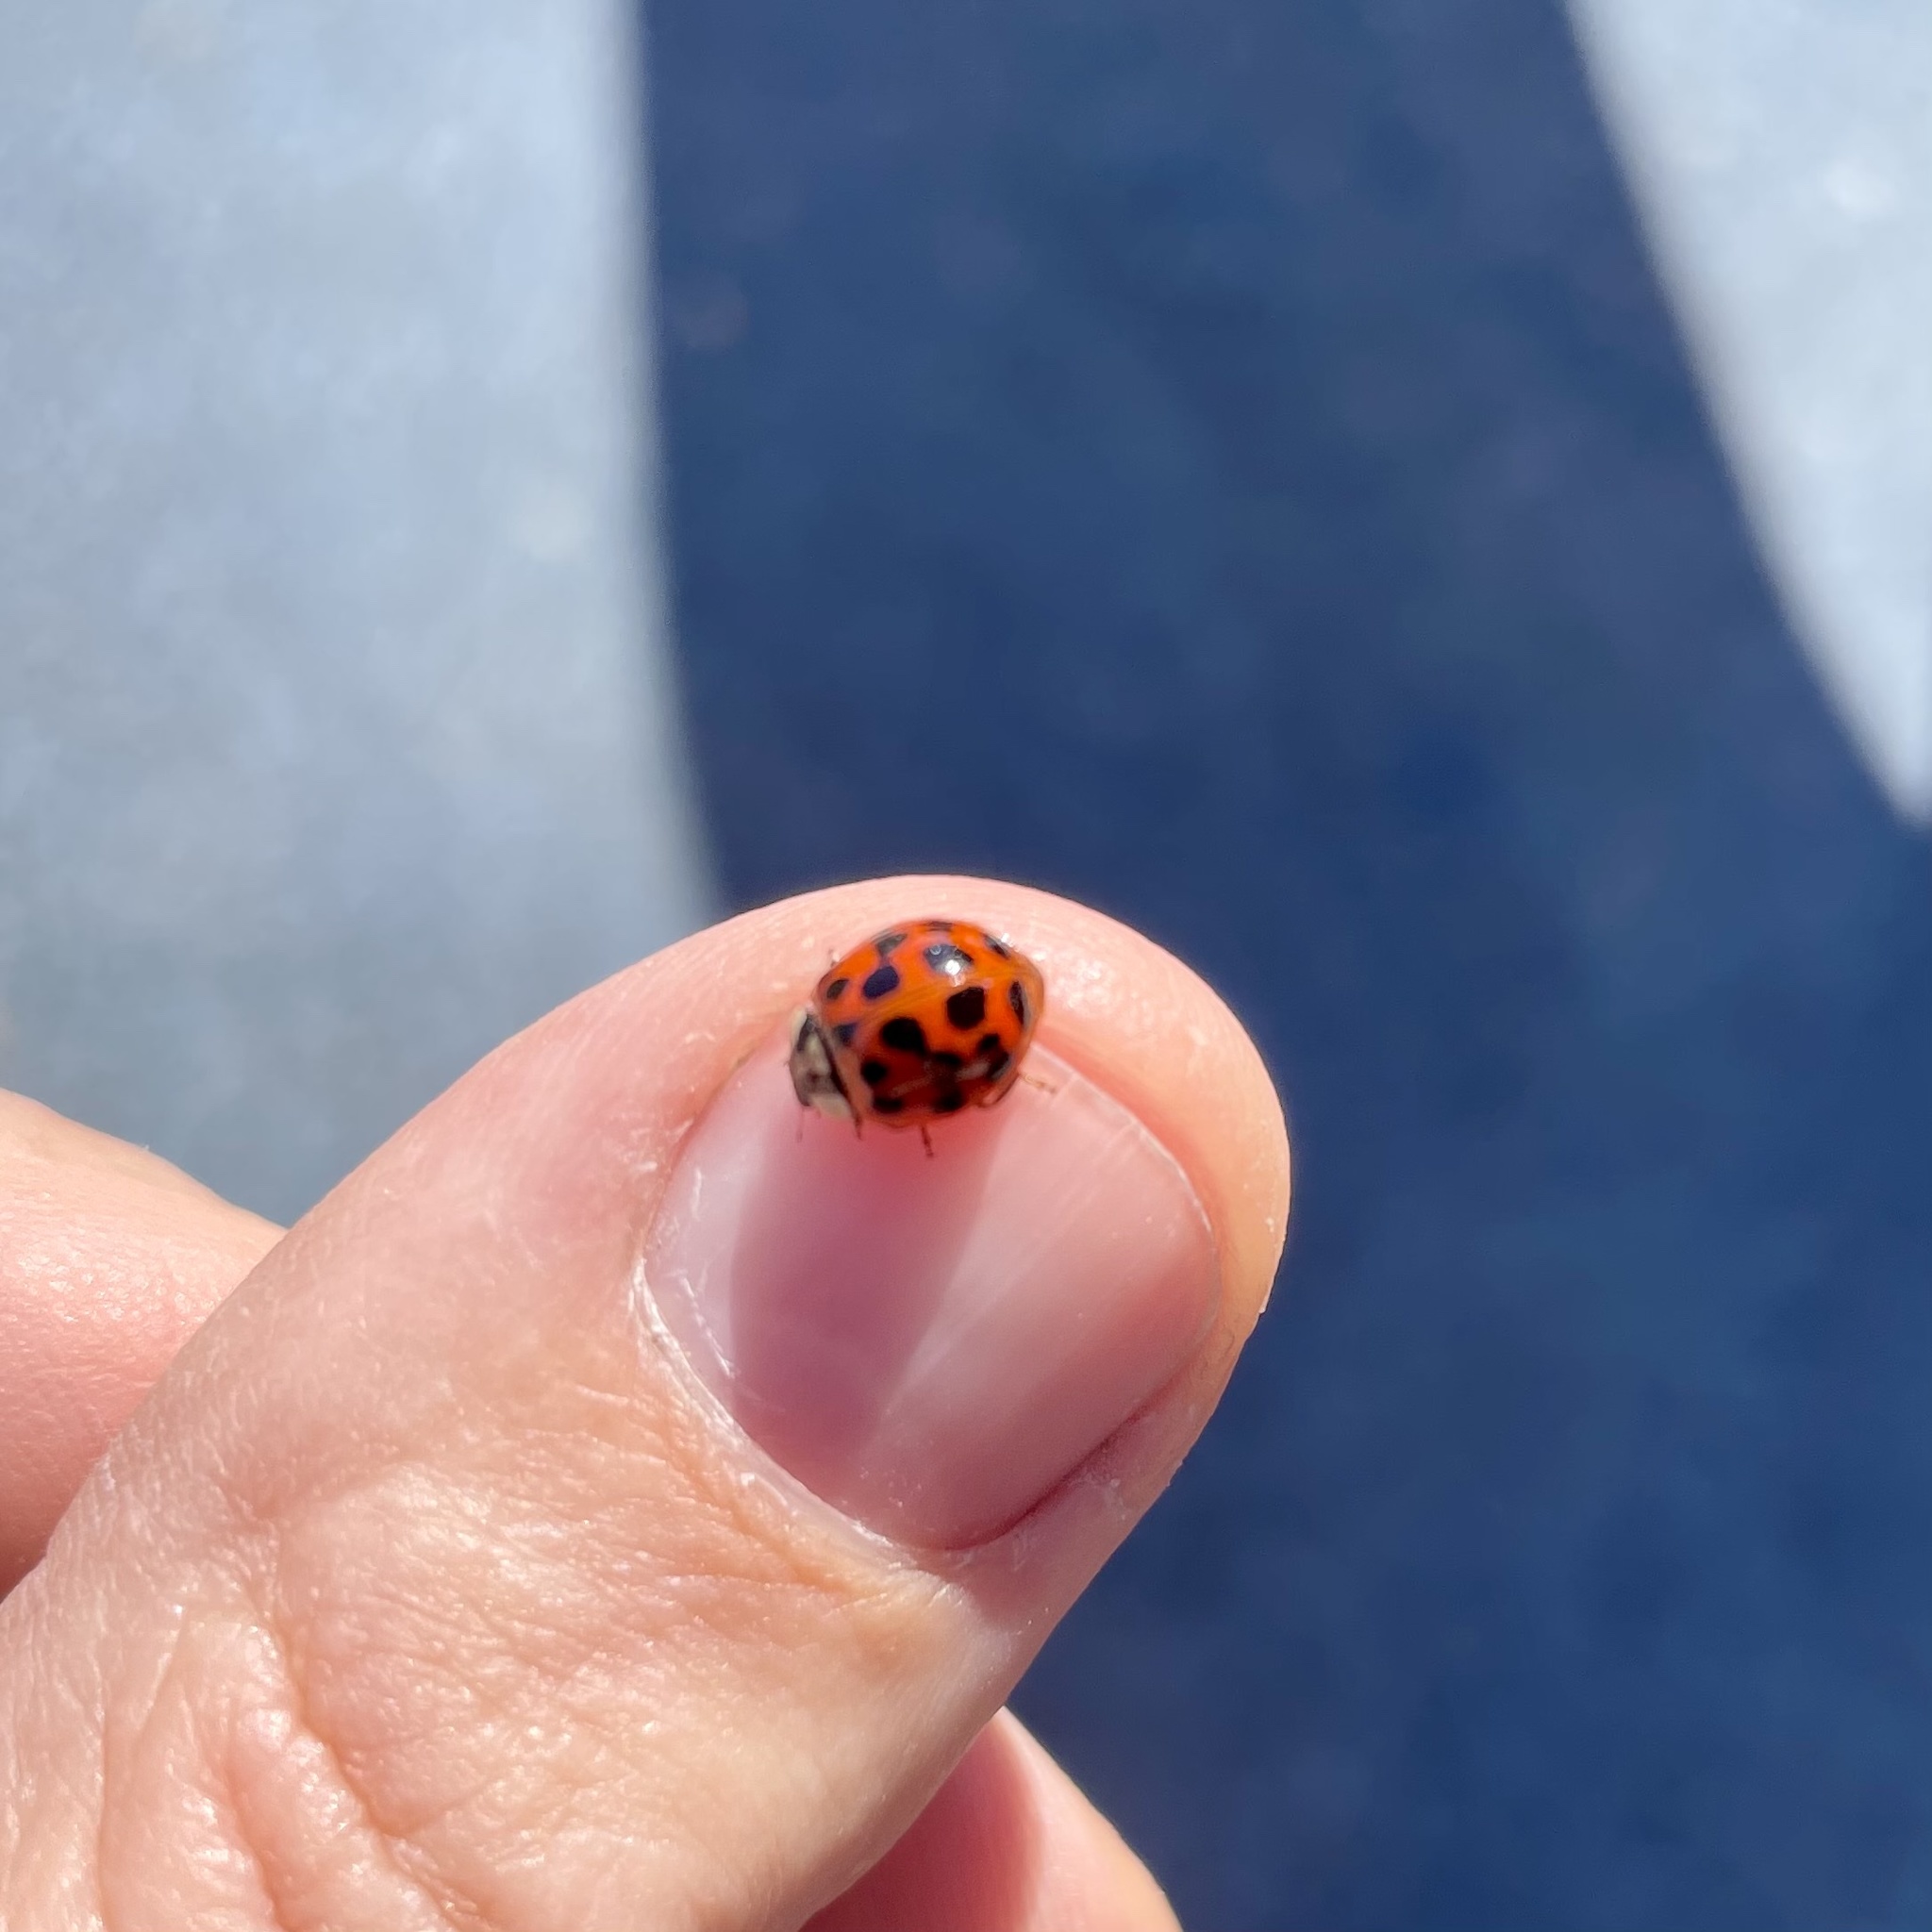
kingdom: Animalia
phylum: Arthropoda
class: Insecta
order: Coleoptera
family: Coccinellidae
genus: Harmonia
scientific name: Harmonia axyridis
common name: Harlequin ladybird
